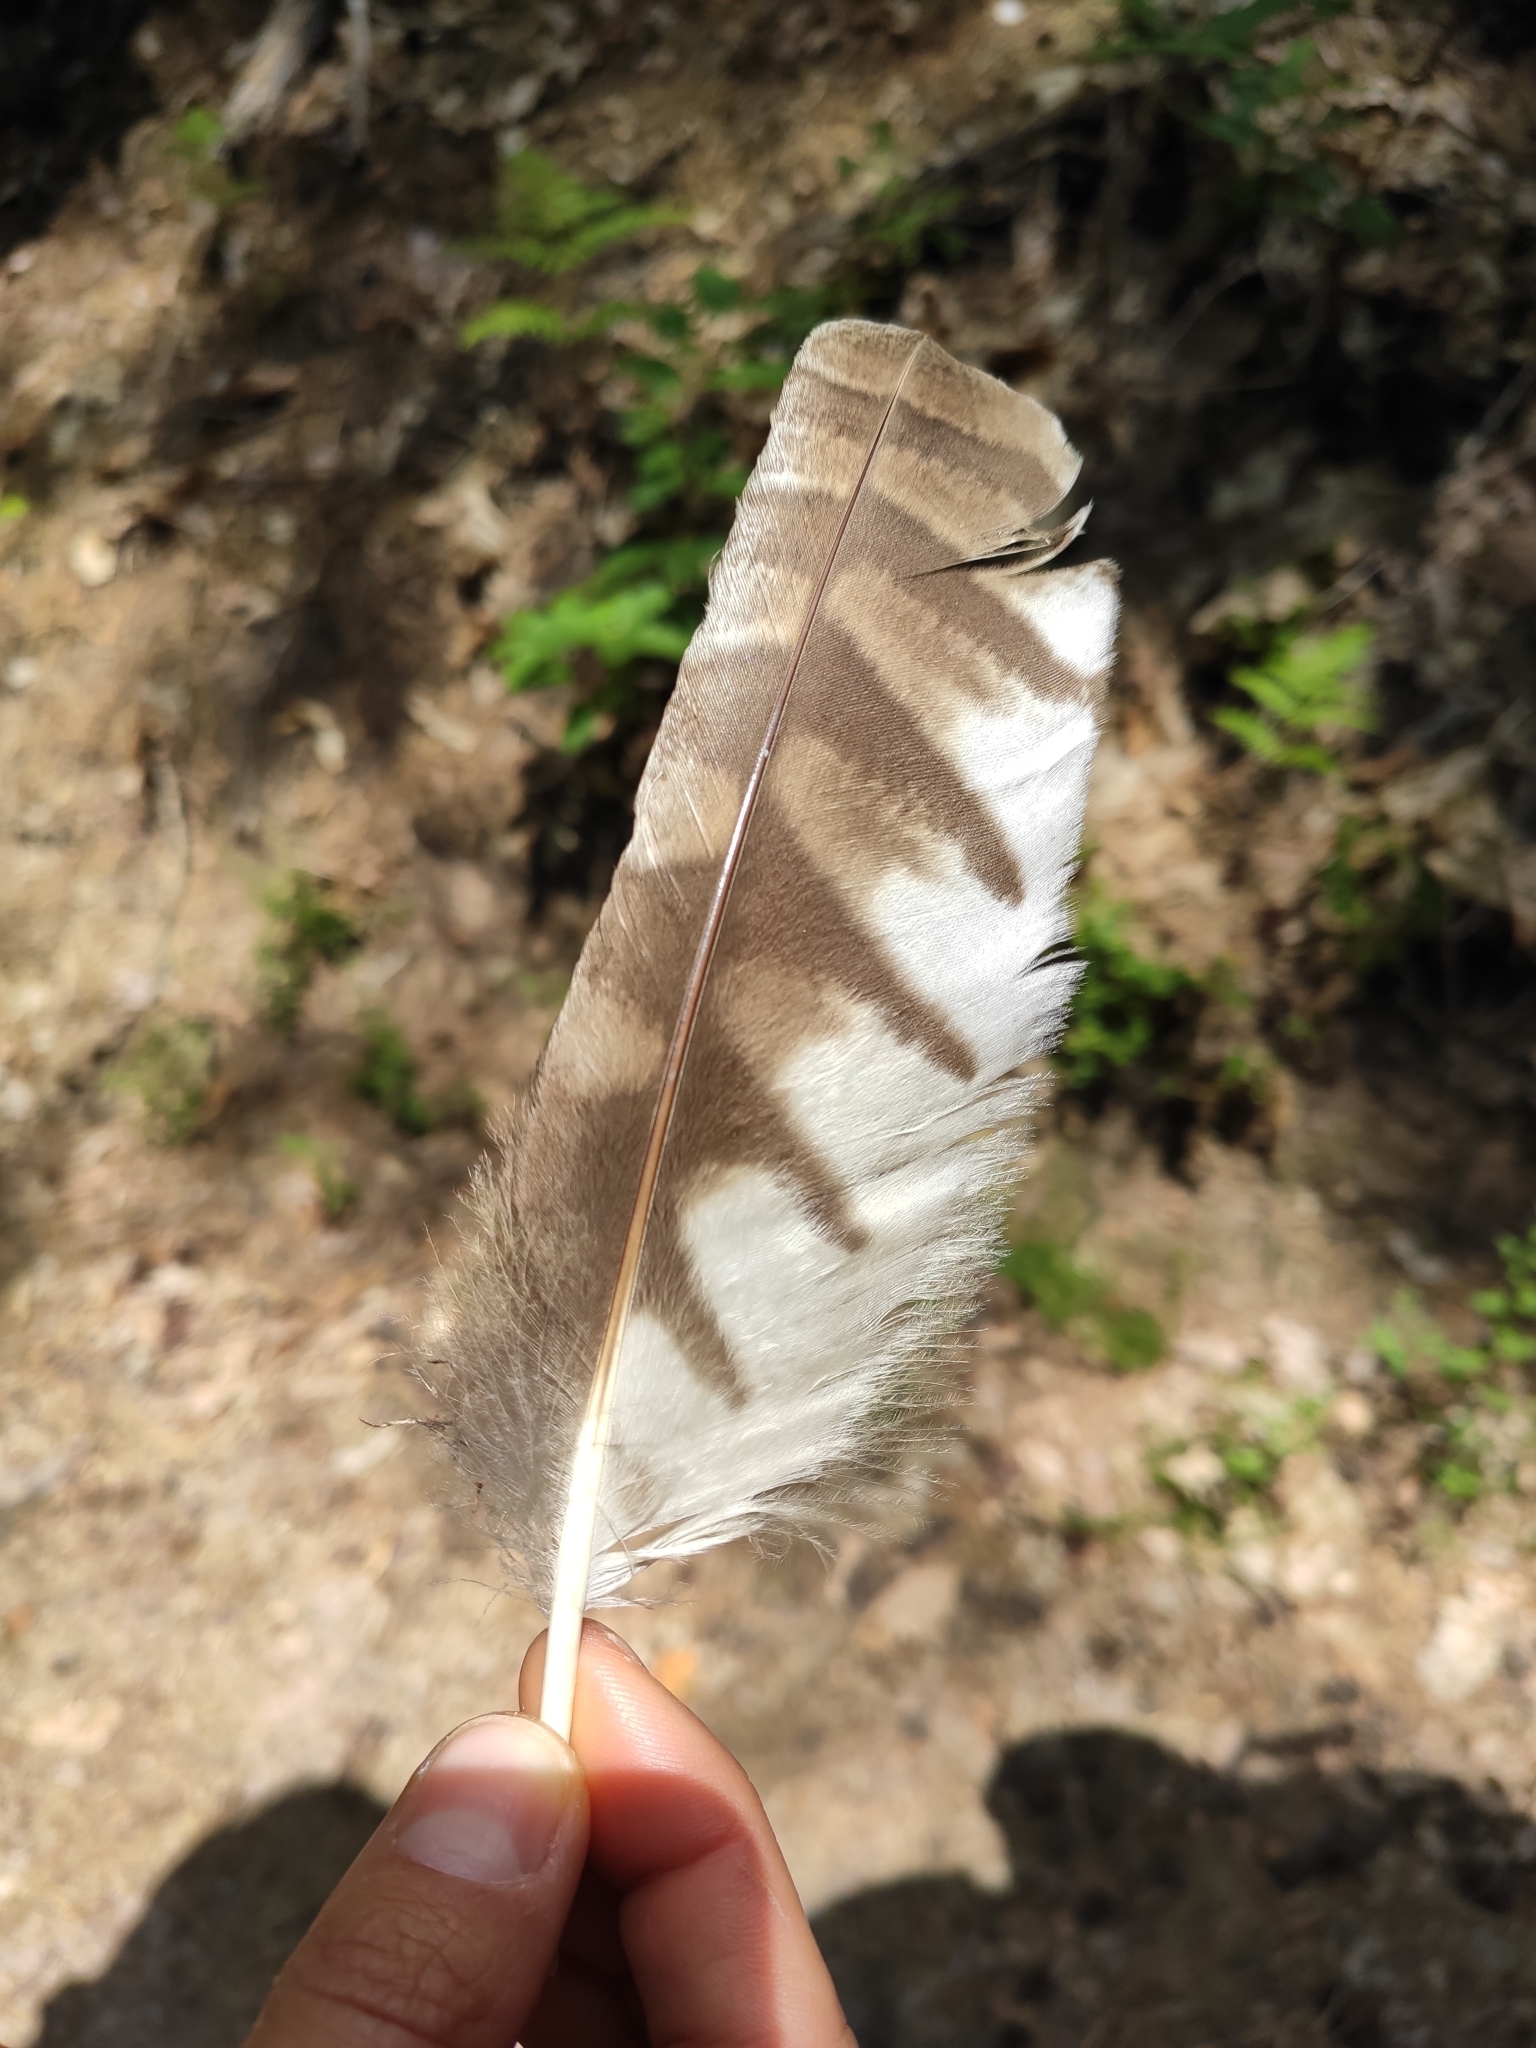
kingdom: Animalia
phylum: Chordata
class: Aves
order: Strigiformes
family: Strigidae
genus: Strix
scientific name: Strix aluco
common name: Tawny owl
